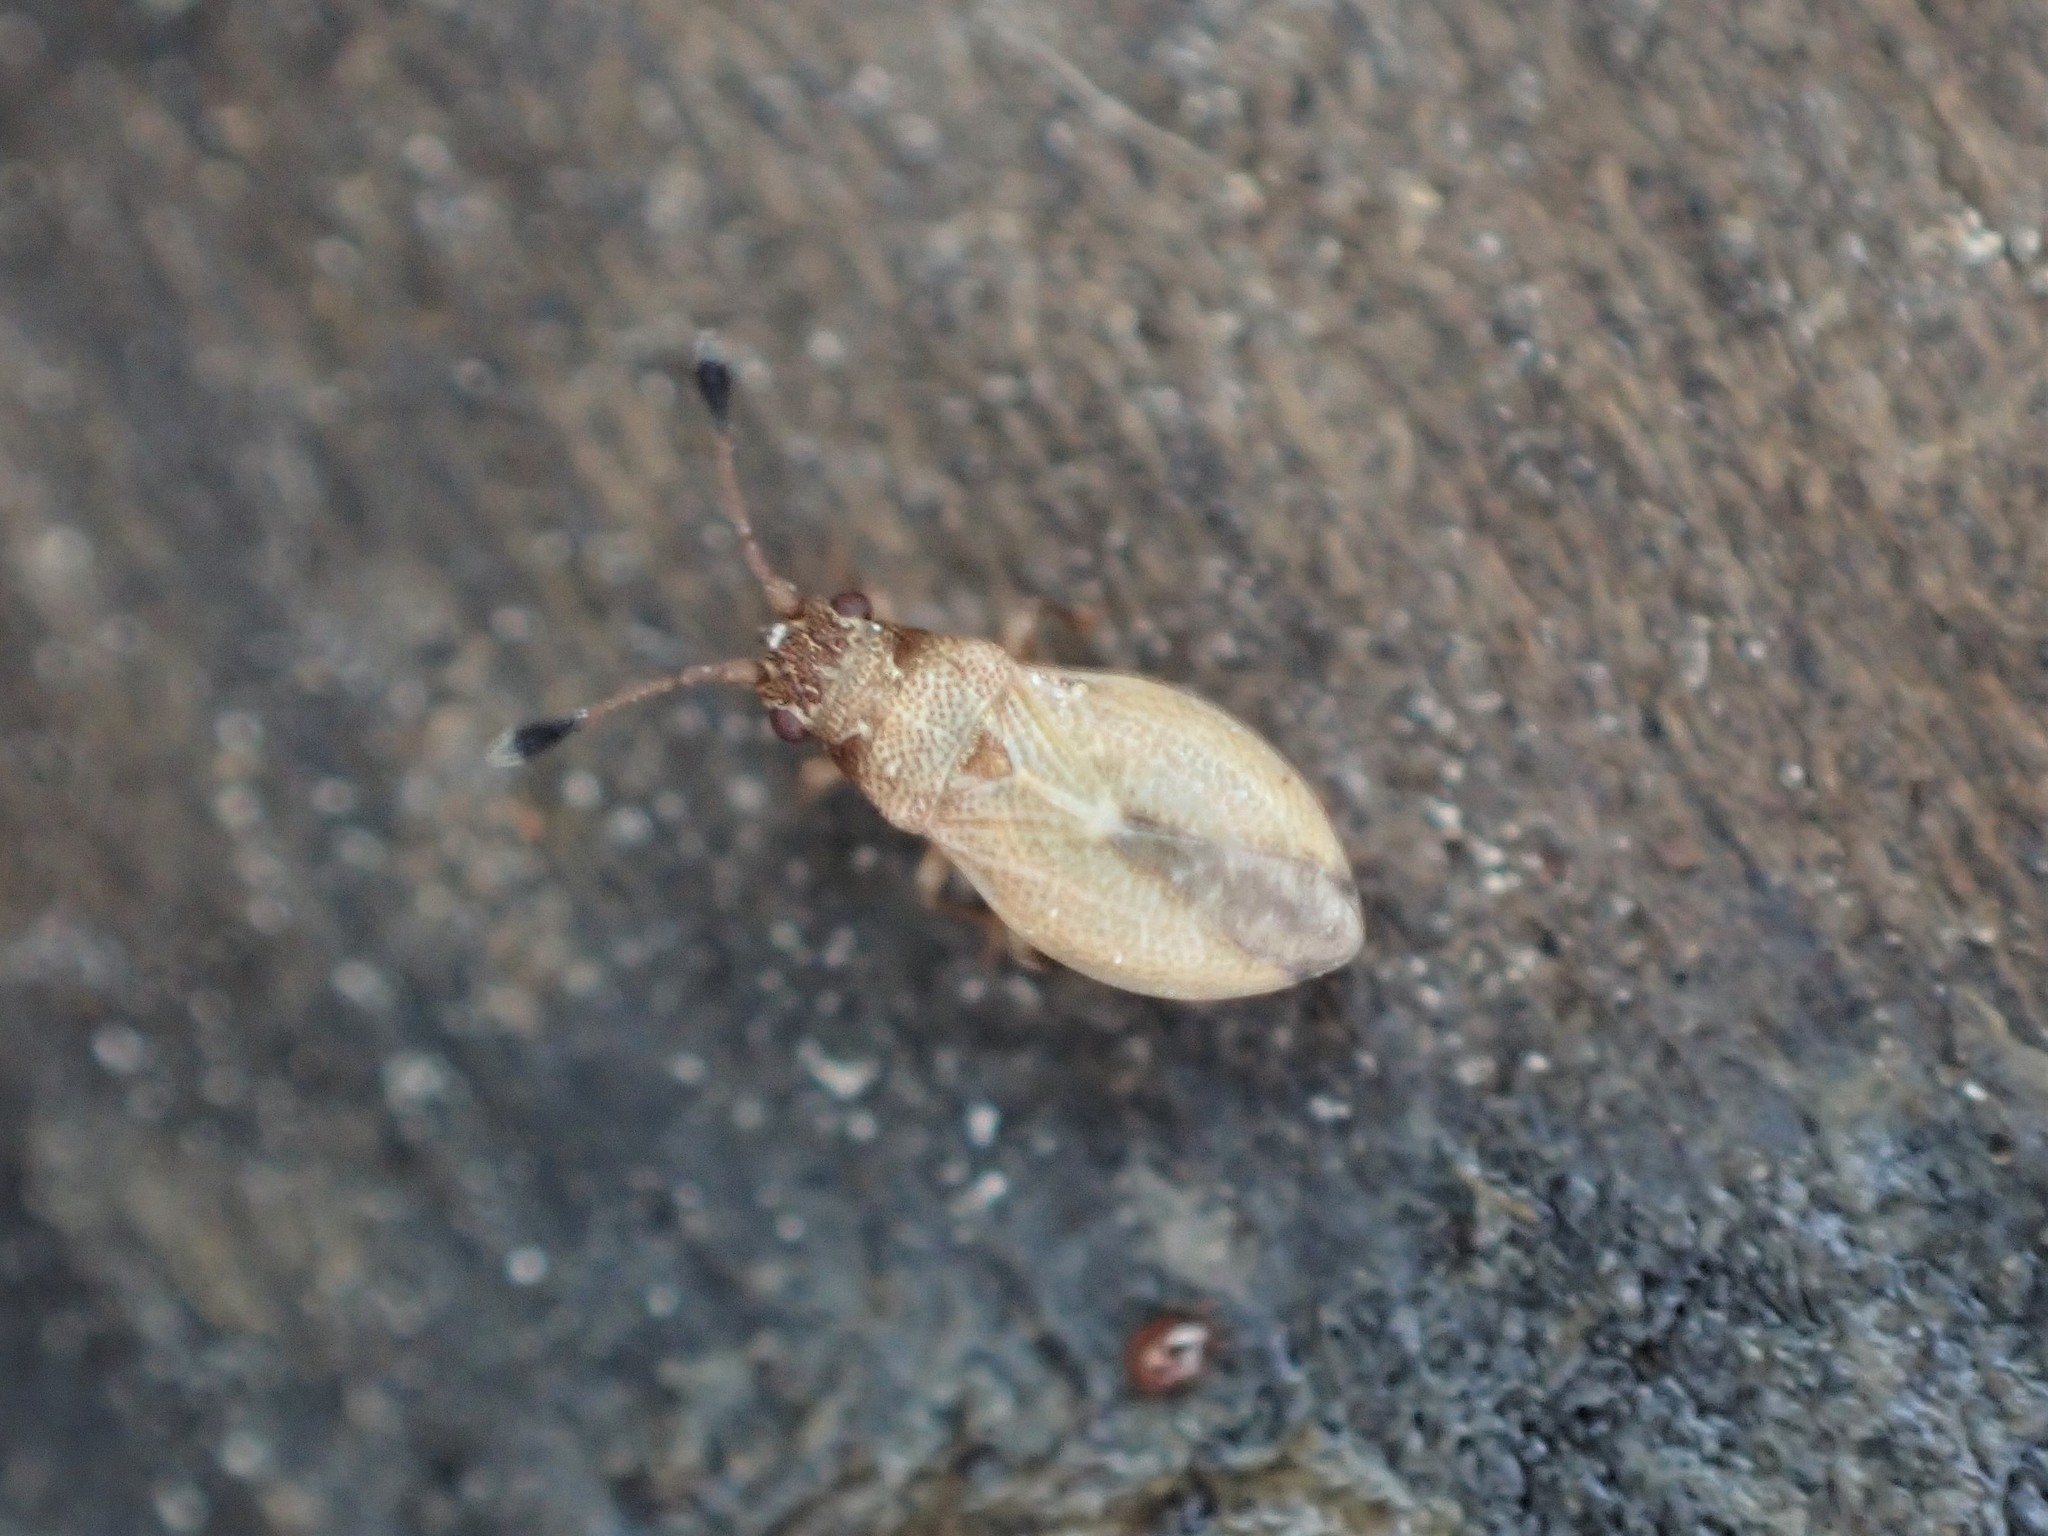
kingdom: Animalia
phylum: Arthropoda
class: Insecta
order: Hemiptera
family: Cymidae
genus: Cymus
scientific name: Cymus novaezelandiae
